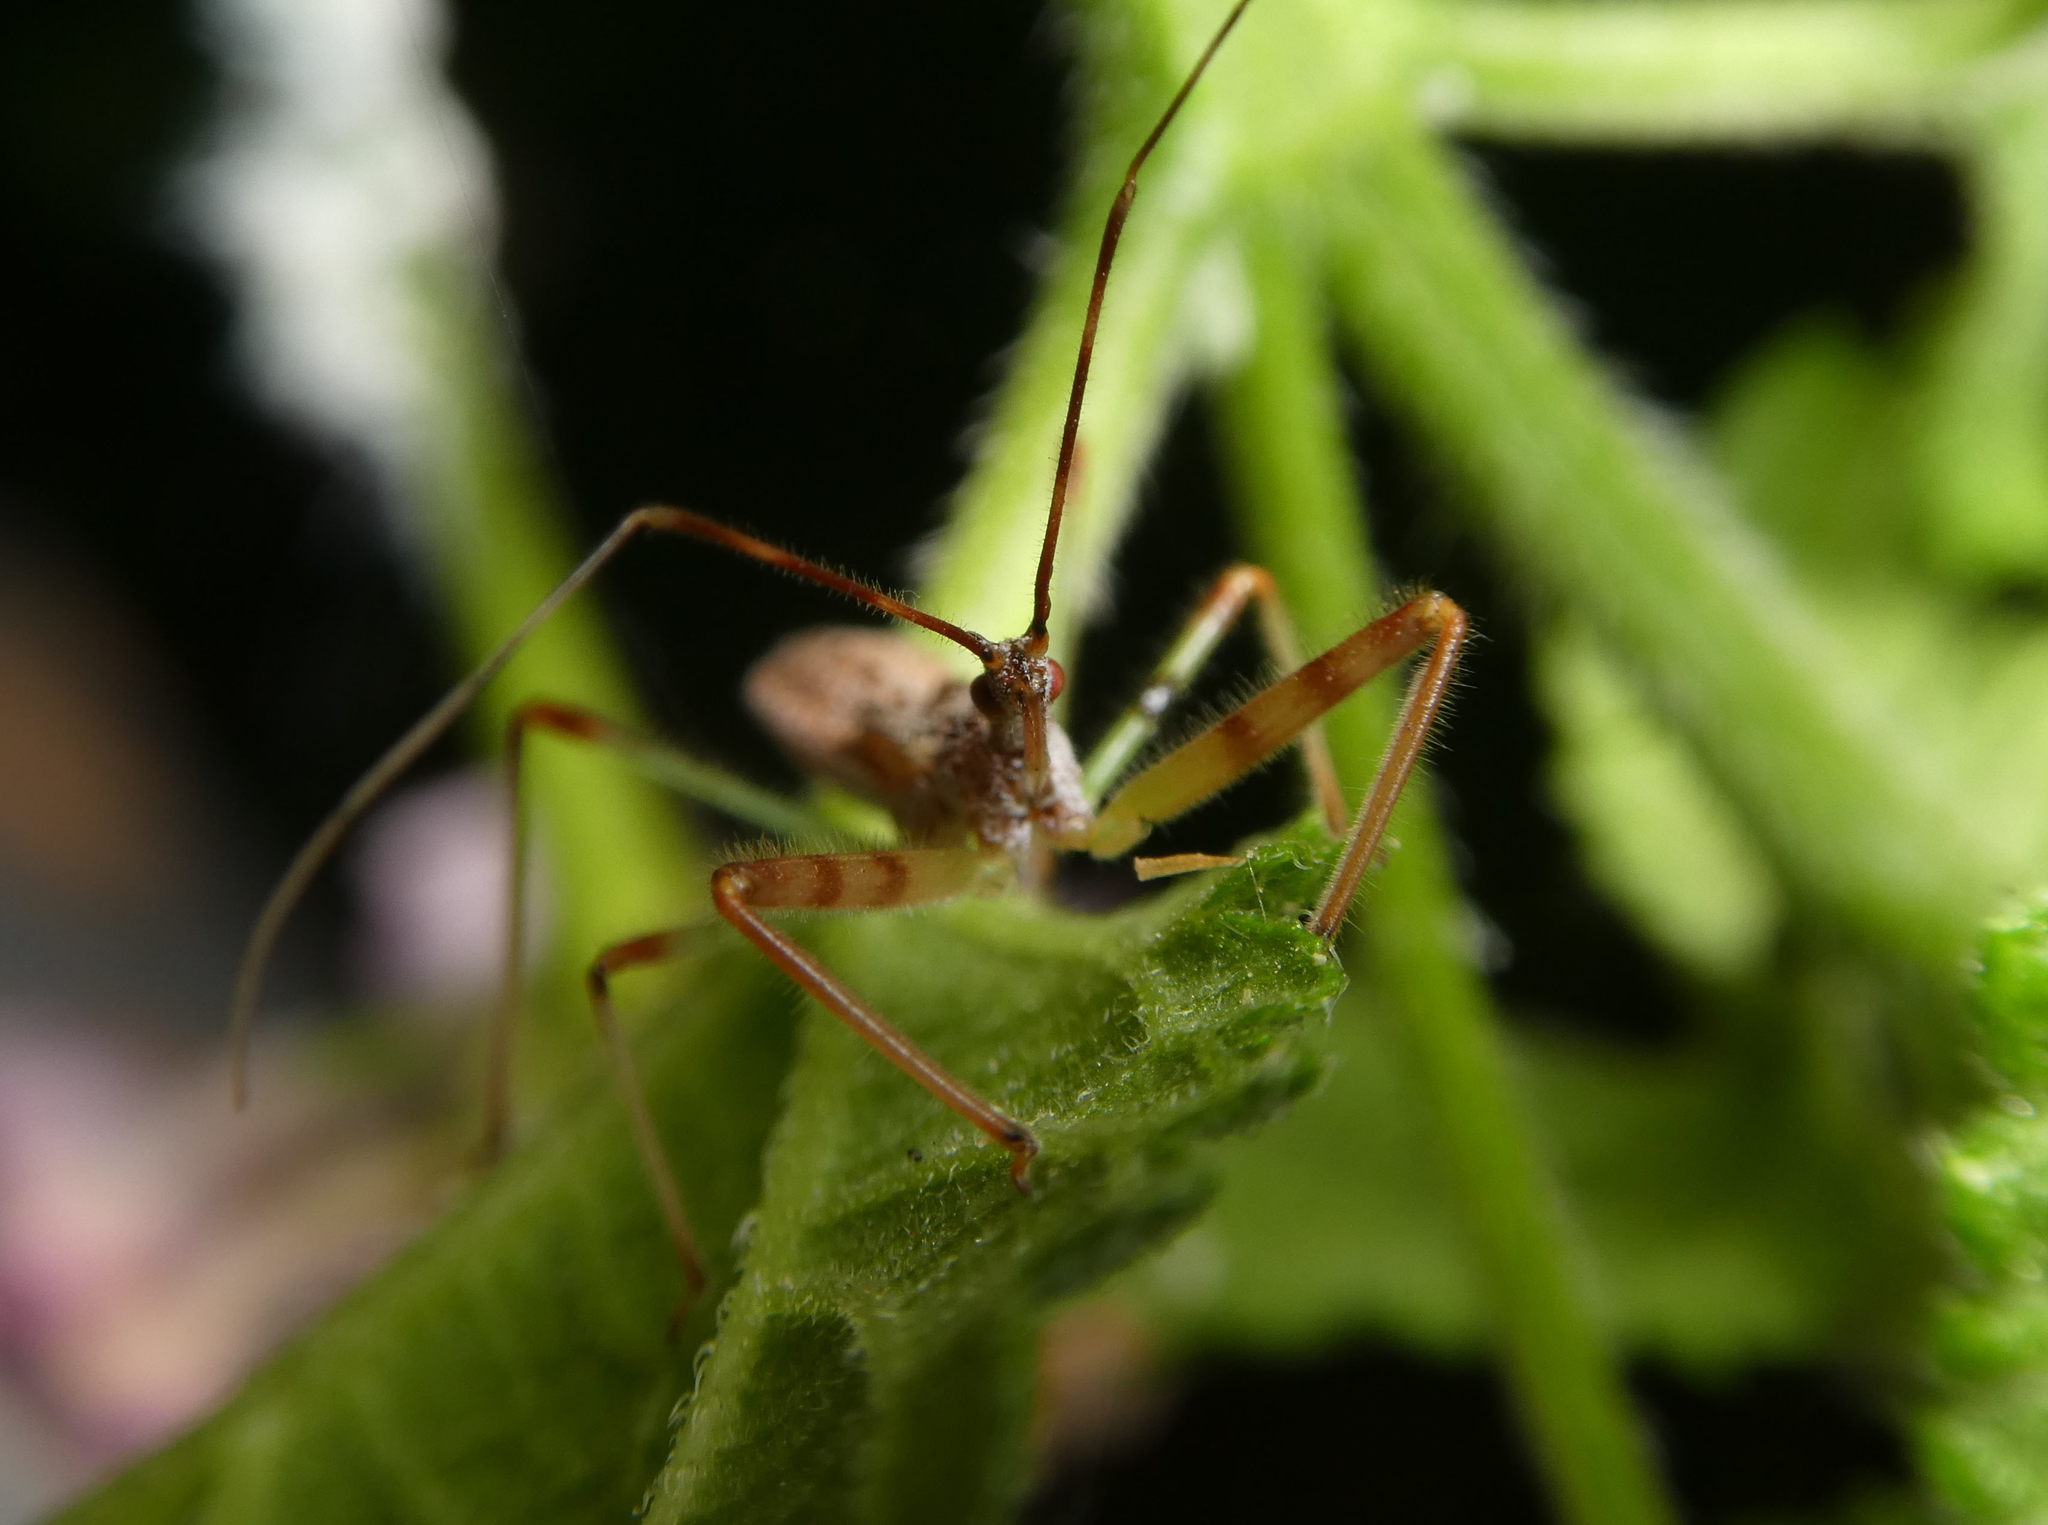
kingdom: Animalia
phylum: Arthropoda
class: Insecta
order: Hemiptera
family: Reduviidae
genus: Nagusta
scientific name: Nagusta goedelii
